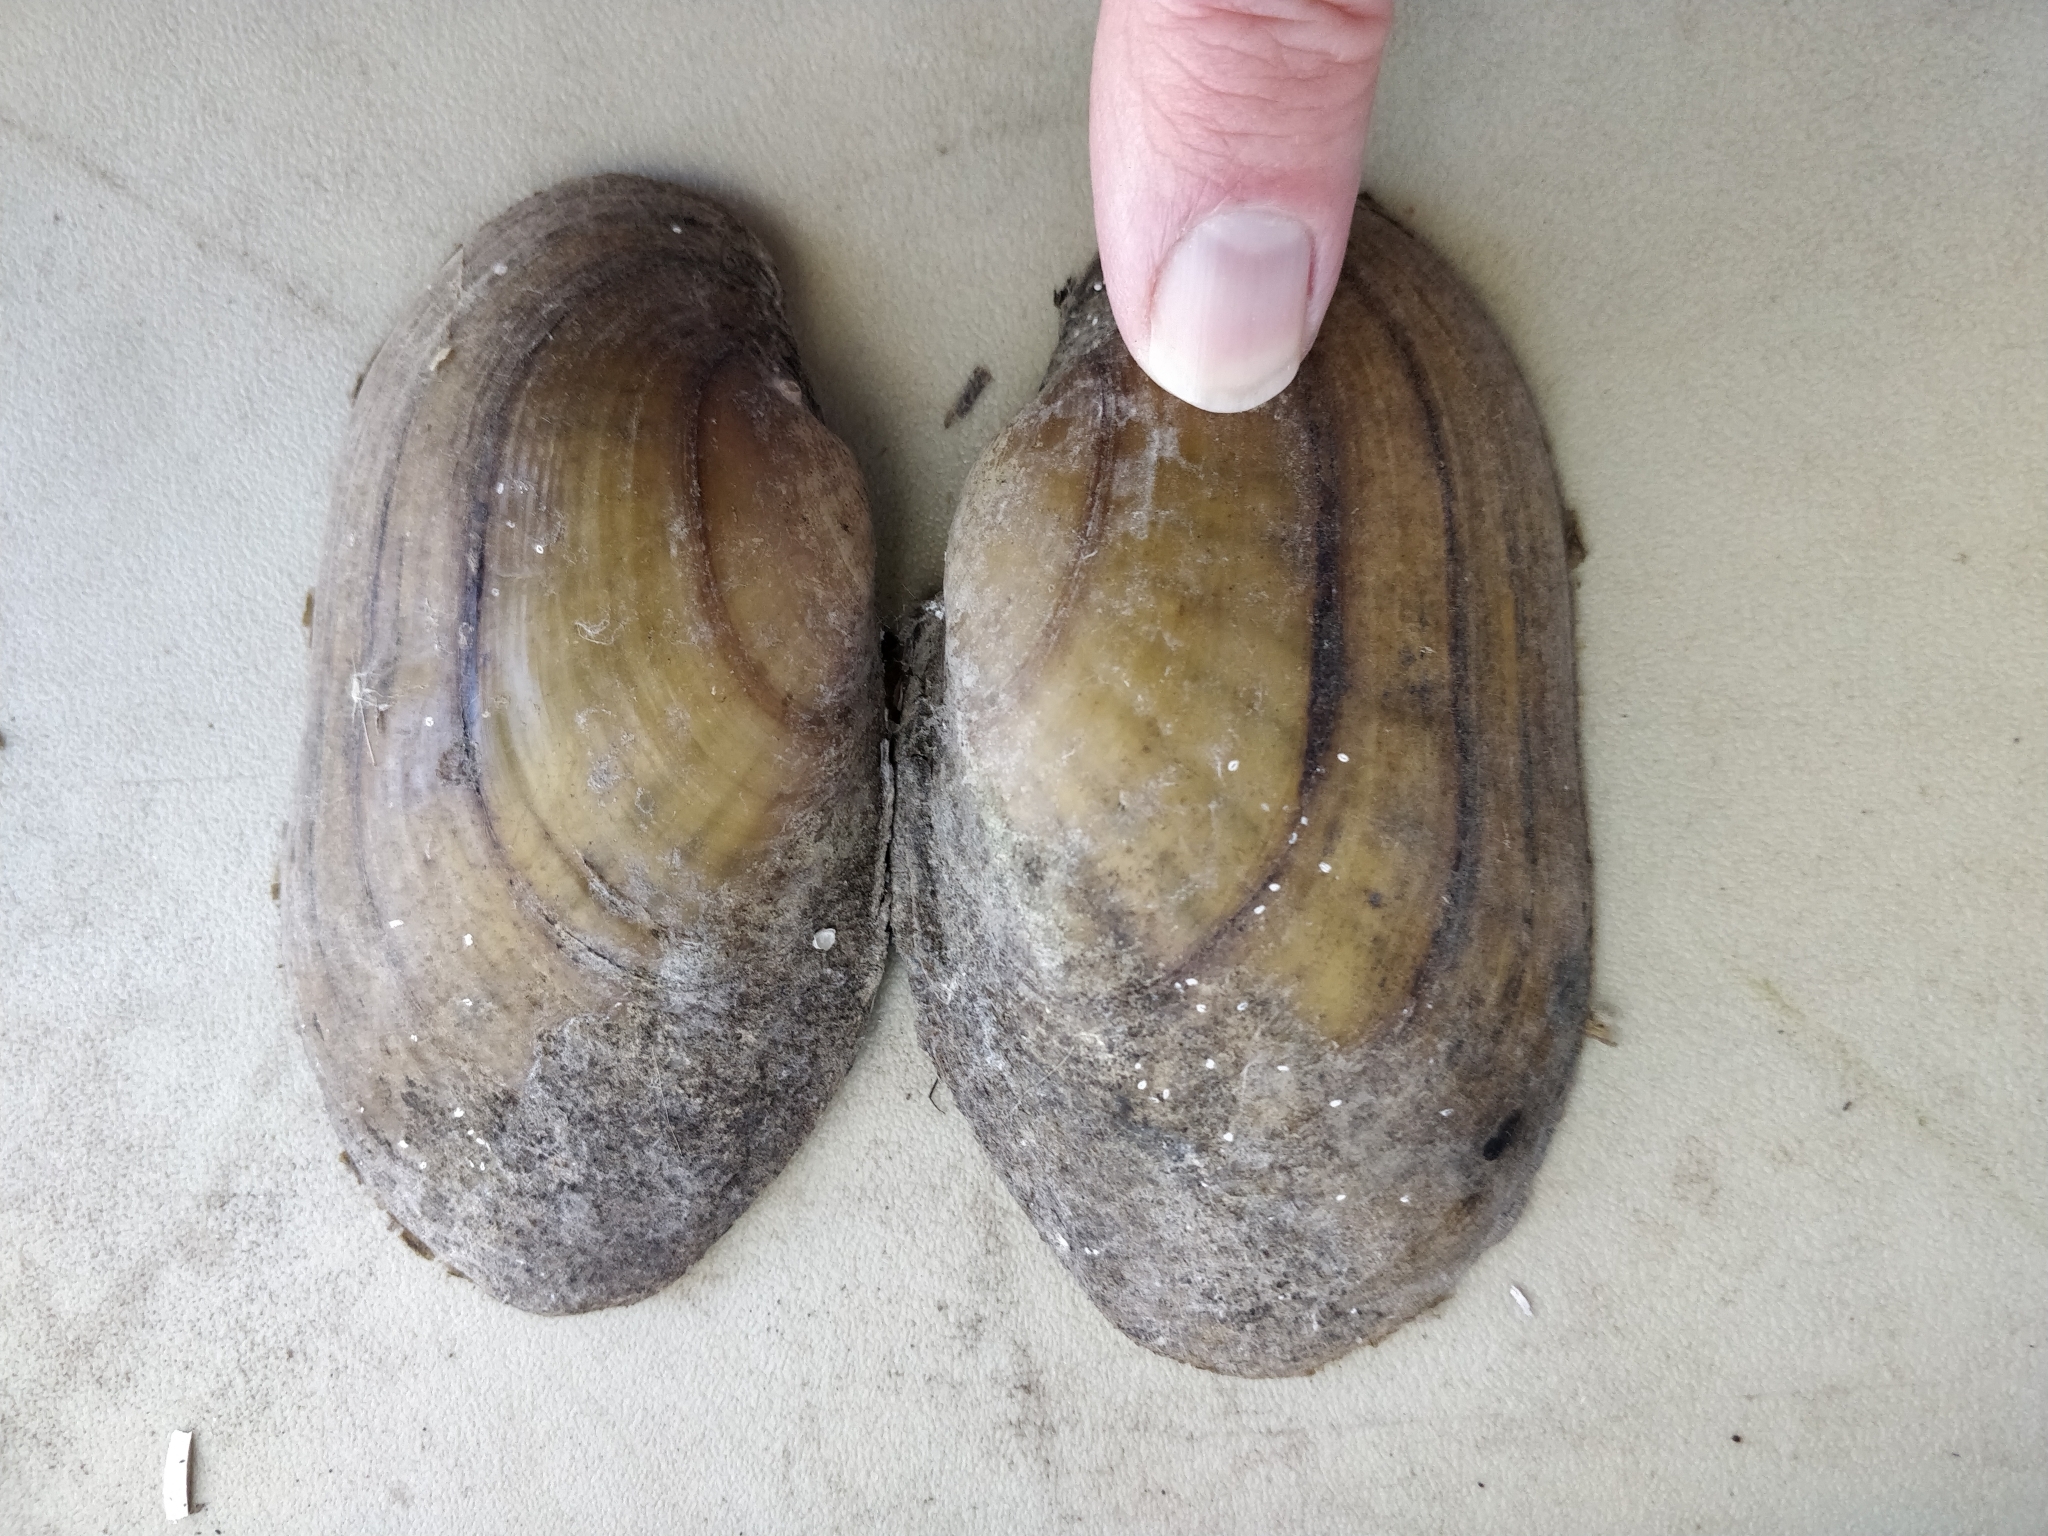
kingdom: Animalia
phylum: Mollusca
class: Bivalvia
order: Unionida
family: Unionidae
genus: Lampsilis
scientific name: Lampsilis siliquoidea
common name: Fatmucket
